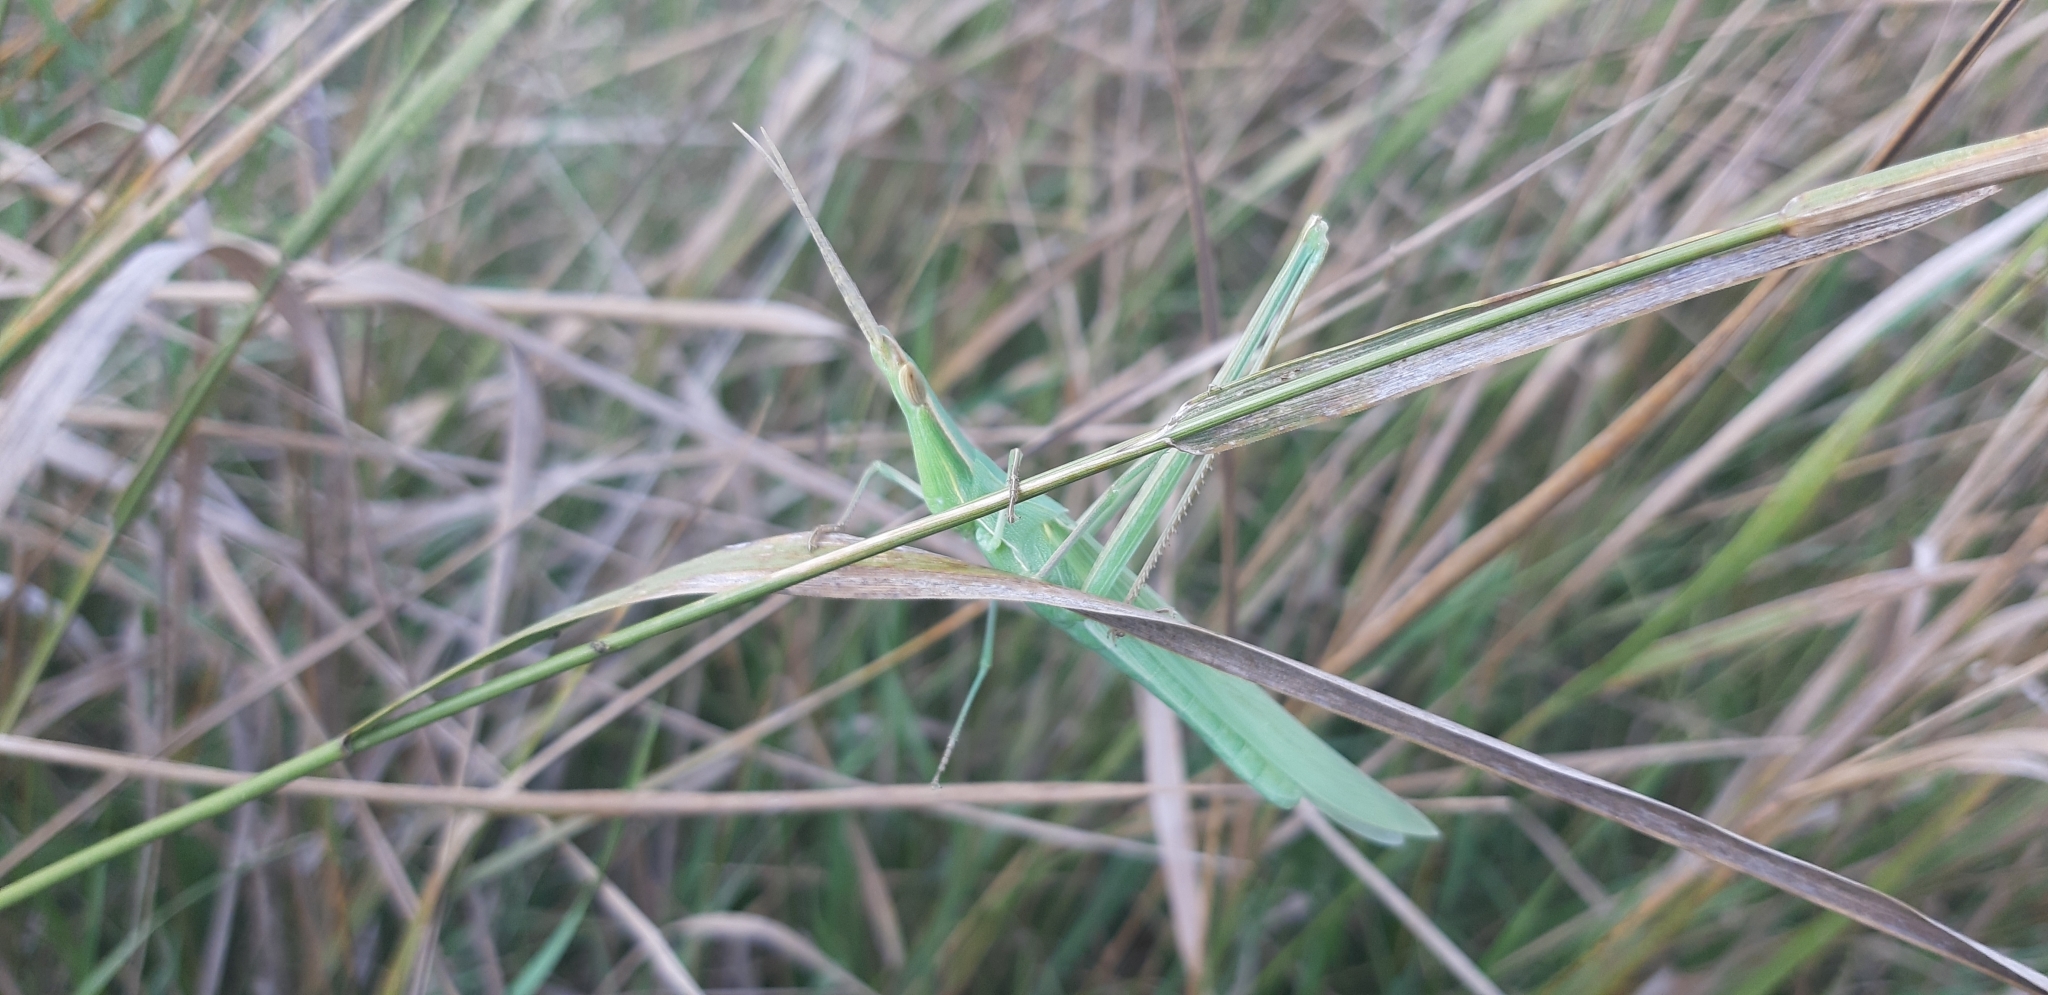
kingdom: Animalia
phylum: Arthropoda
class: Insecta
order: Orthoptera
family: Acrididae
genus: Acrida
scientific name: Acrida ungarica
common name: Common cone-headed grasshopper
